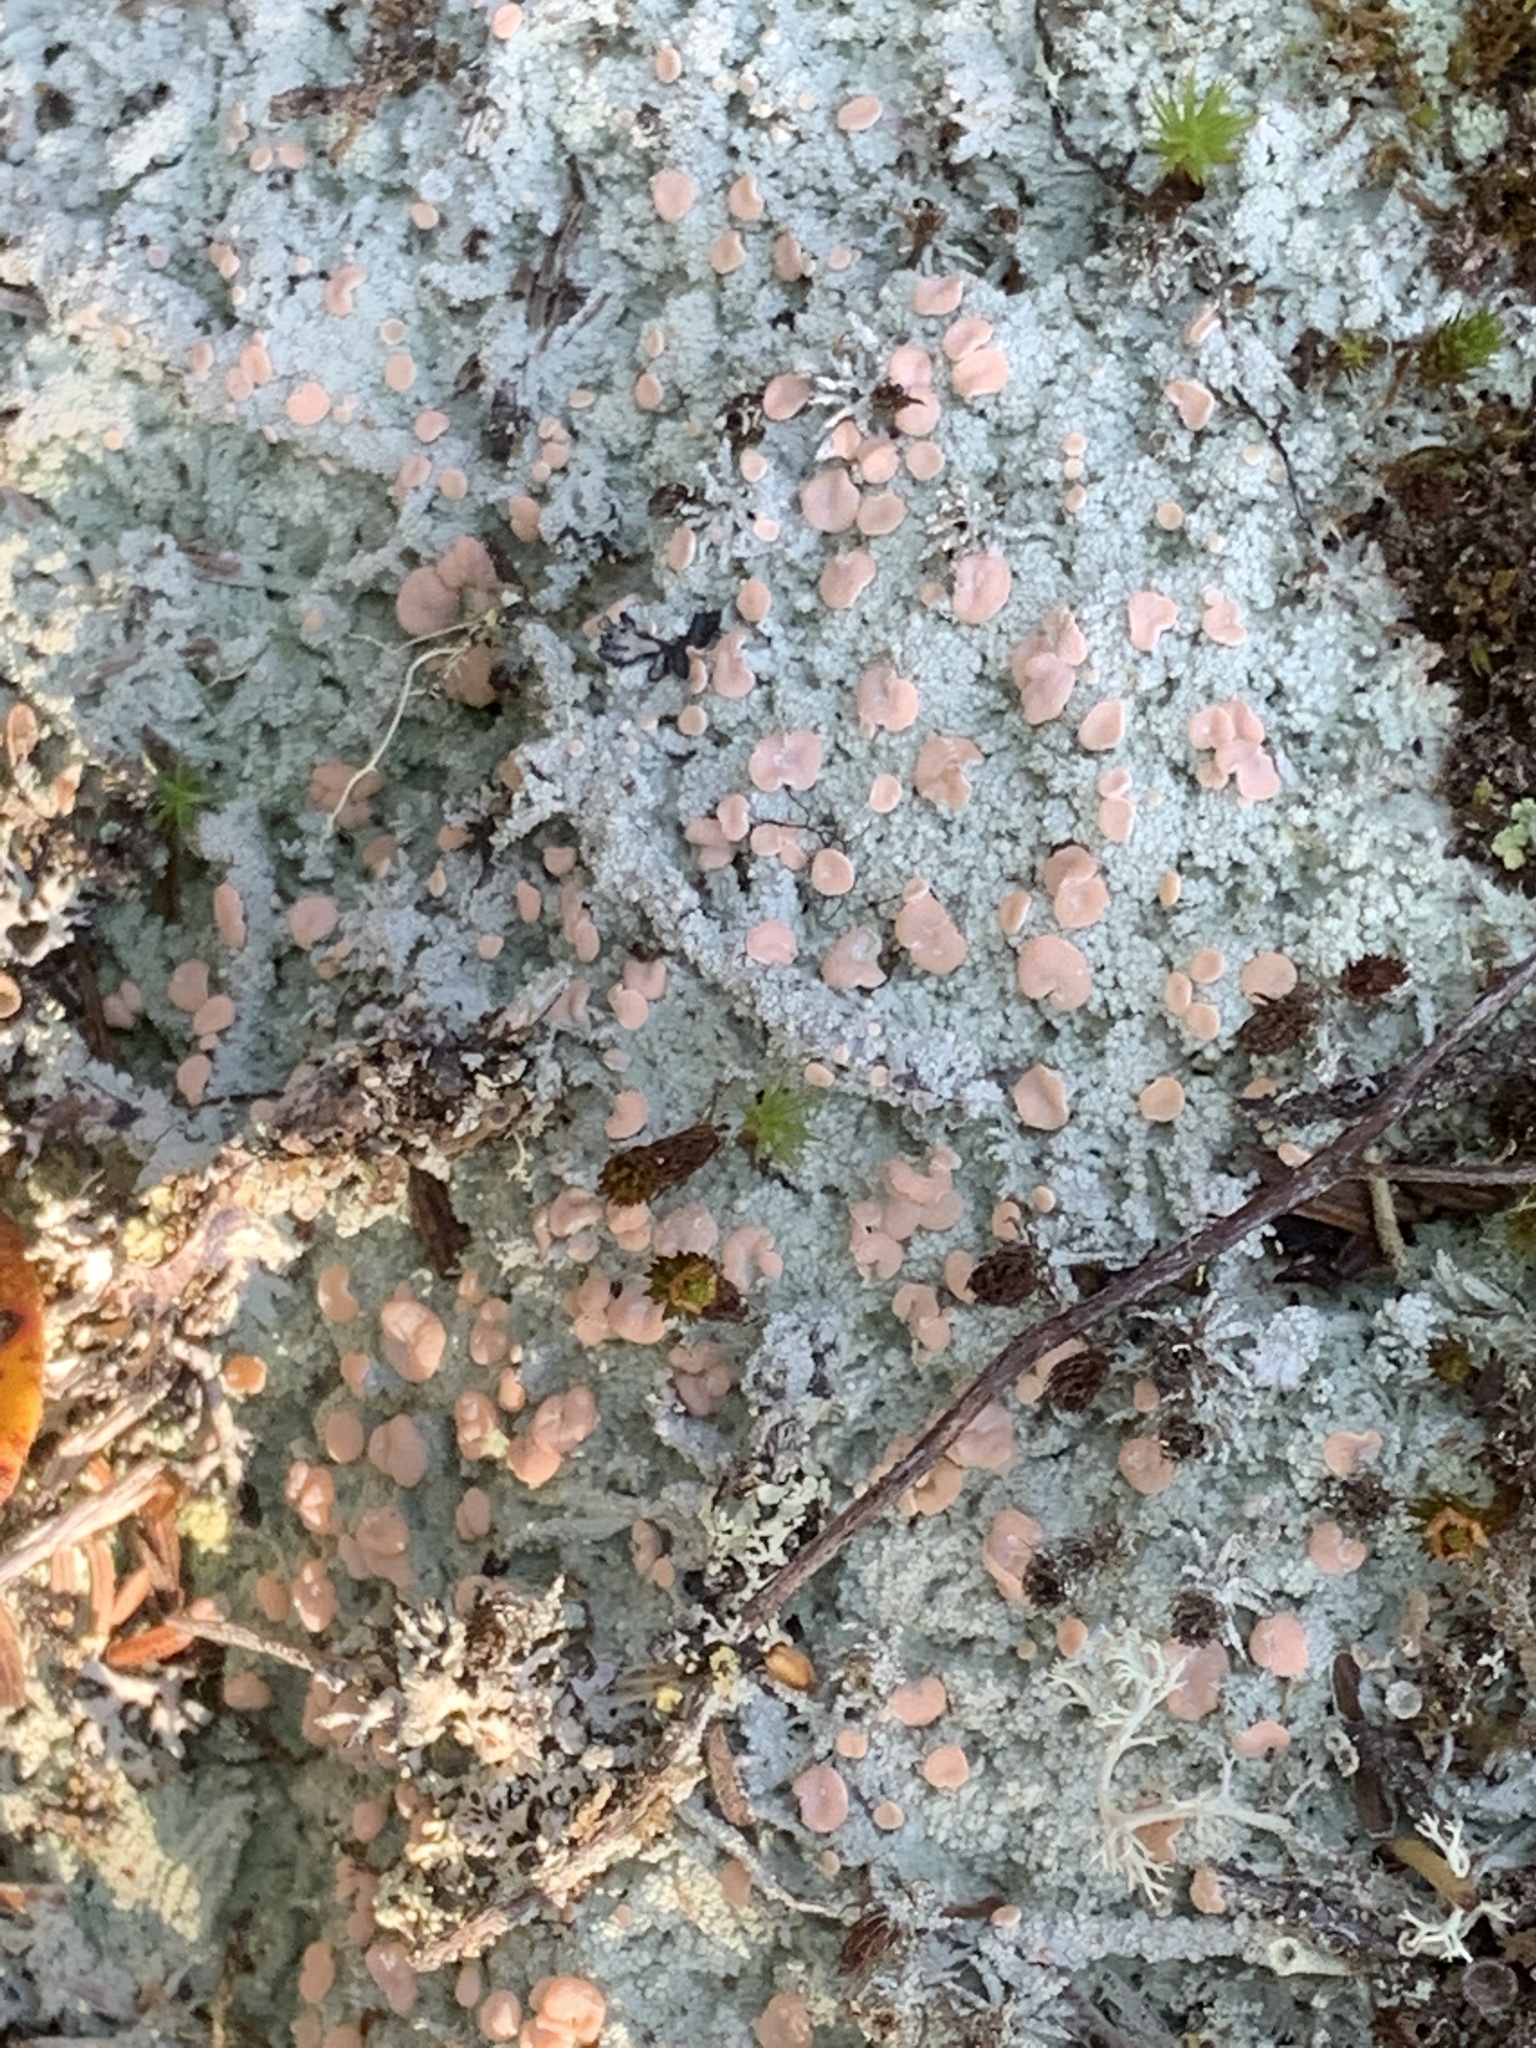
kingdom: Fungi
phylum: Ascomycota
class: Lecanoromycetes
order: Pertusariales
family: Icmadophilaceae
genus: Icmadophila
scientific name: Icmadophila ericetorum
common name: Candy lichen
